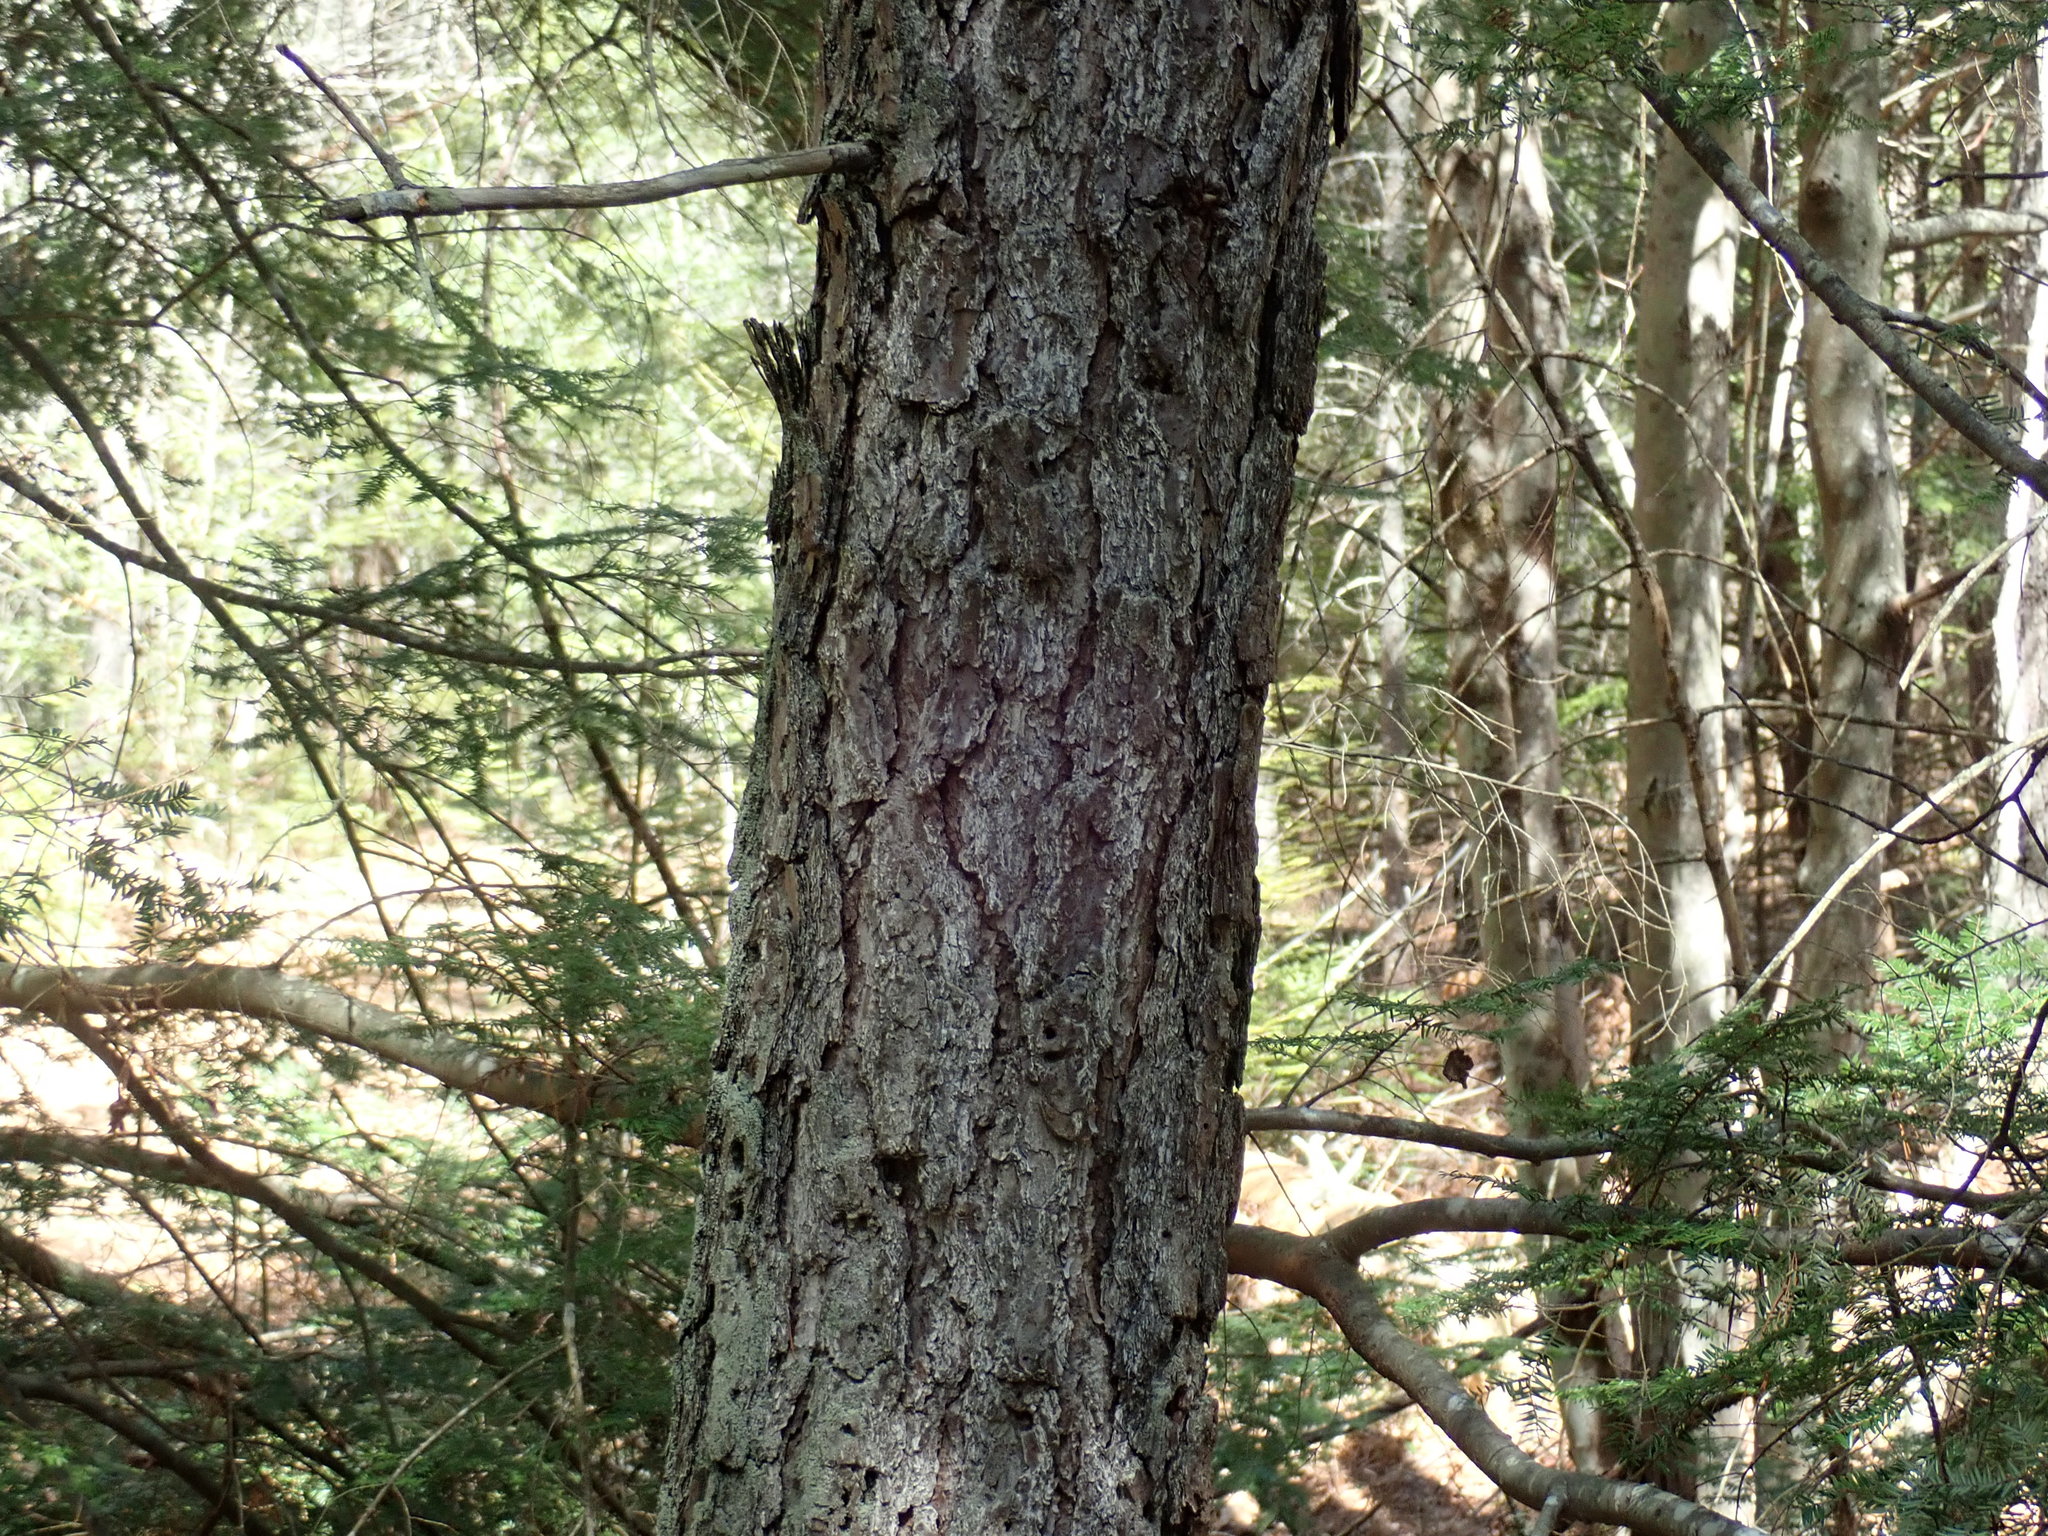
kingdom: Plantae
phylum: Tracheophyta
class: Pinopsida
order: Pinales
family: Pinaceae
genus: Pinus
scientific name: Pinus rigida
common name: Pitch pine
